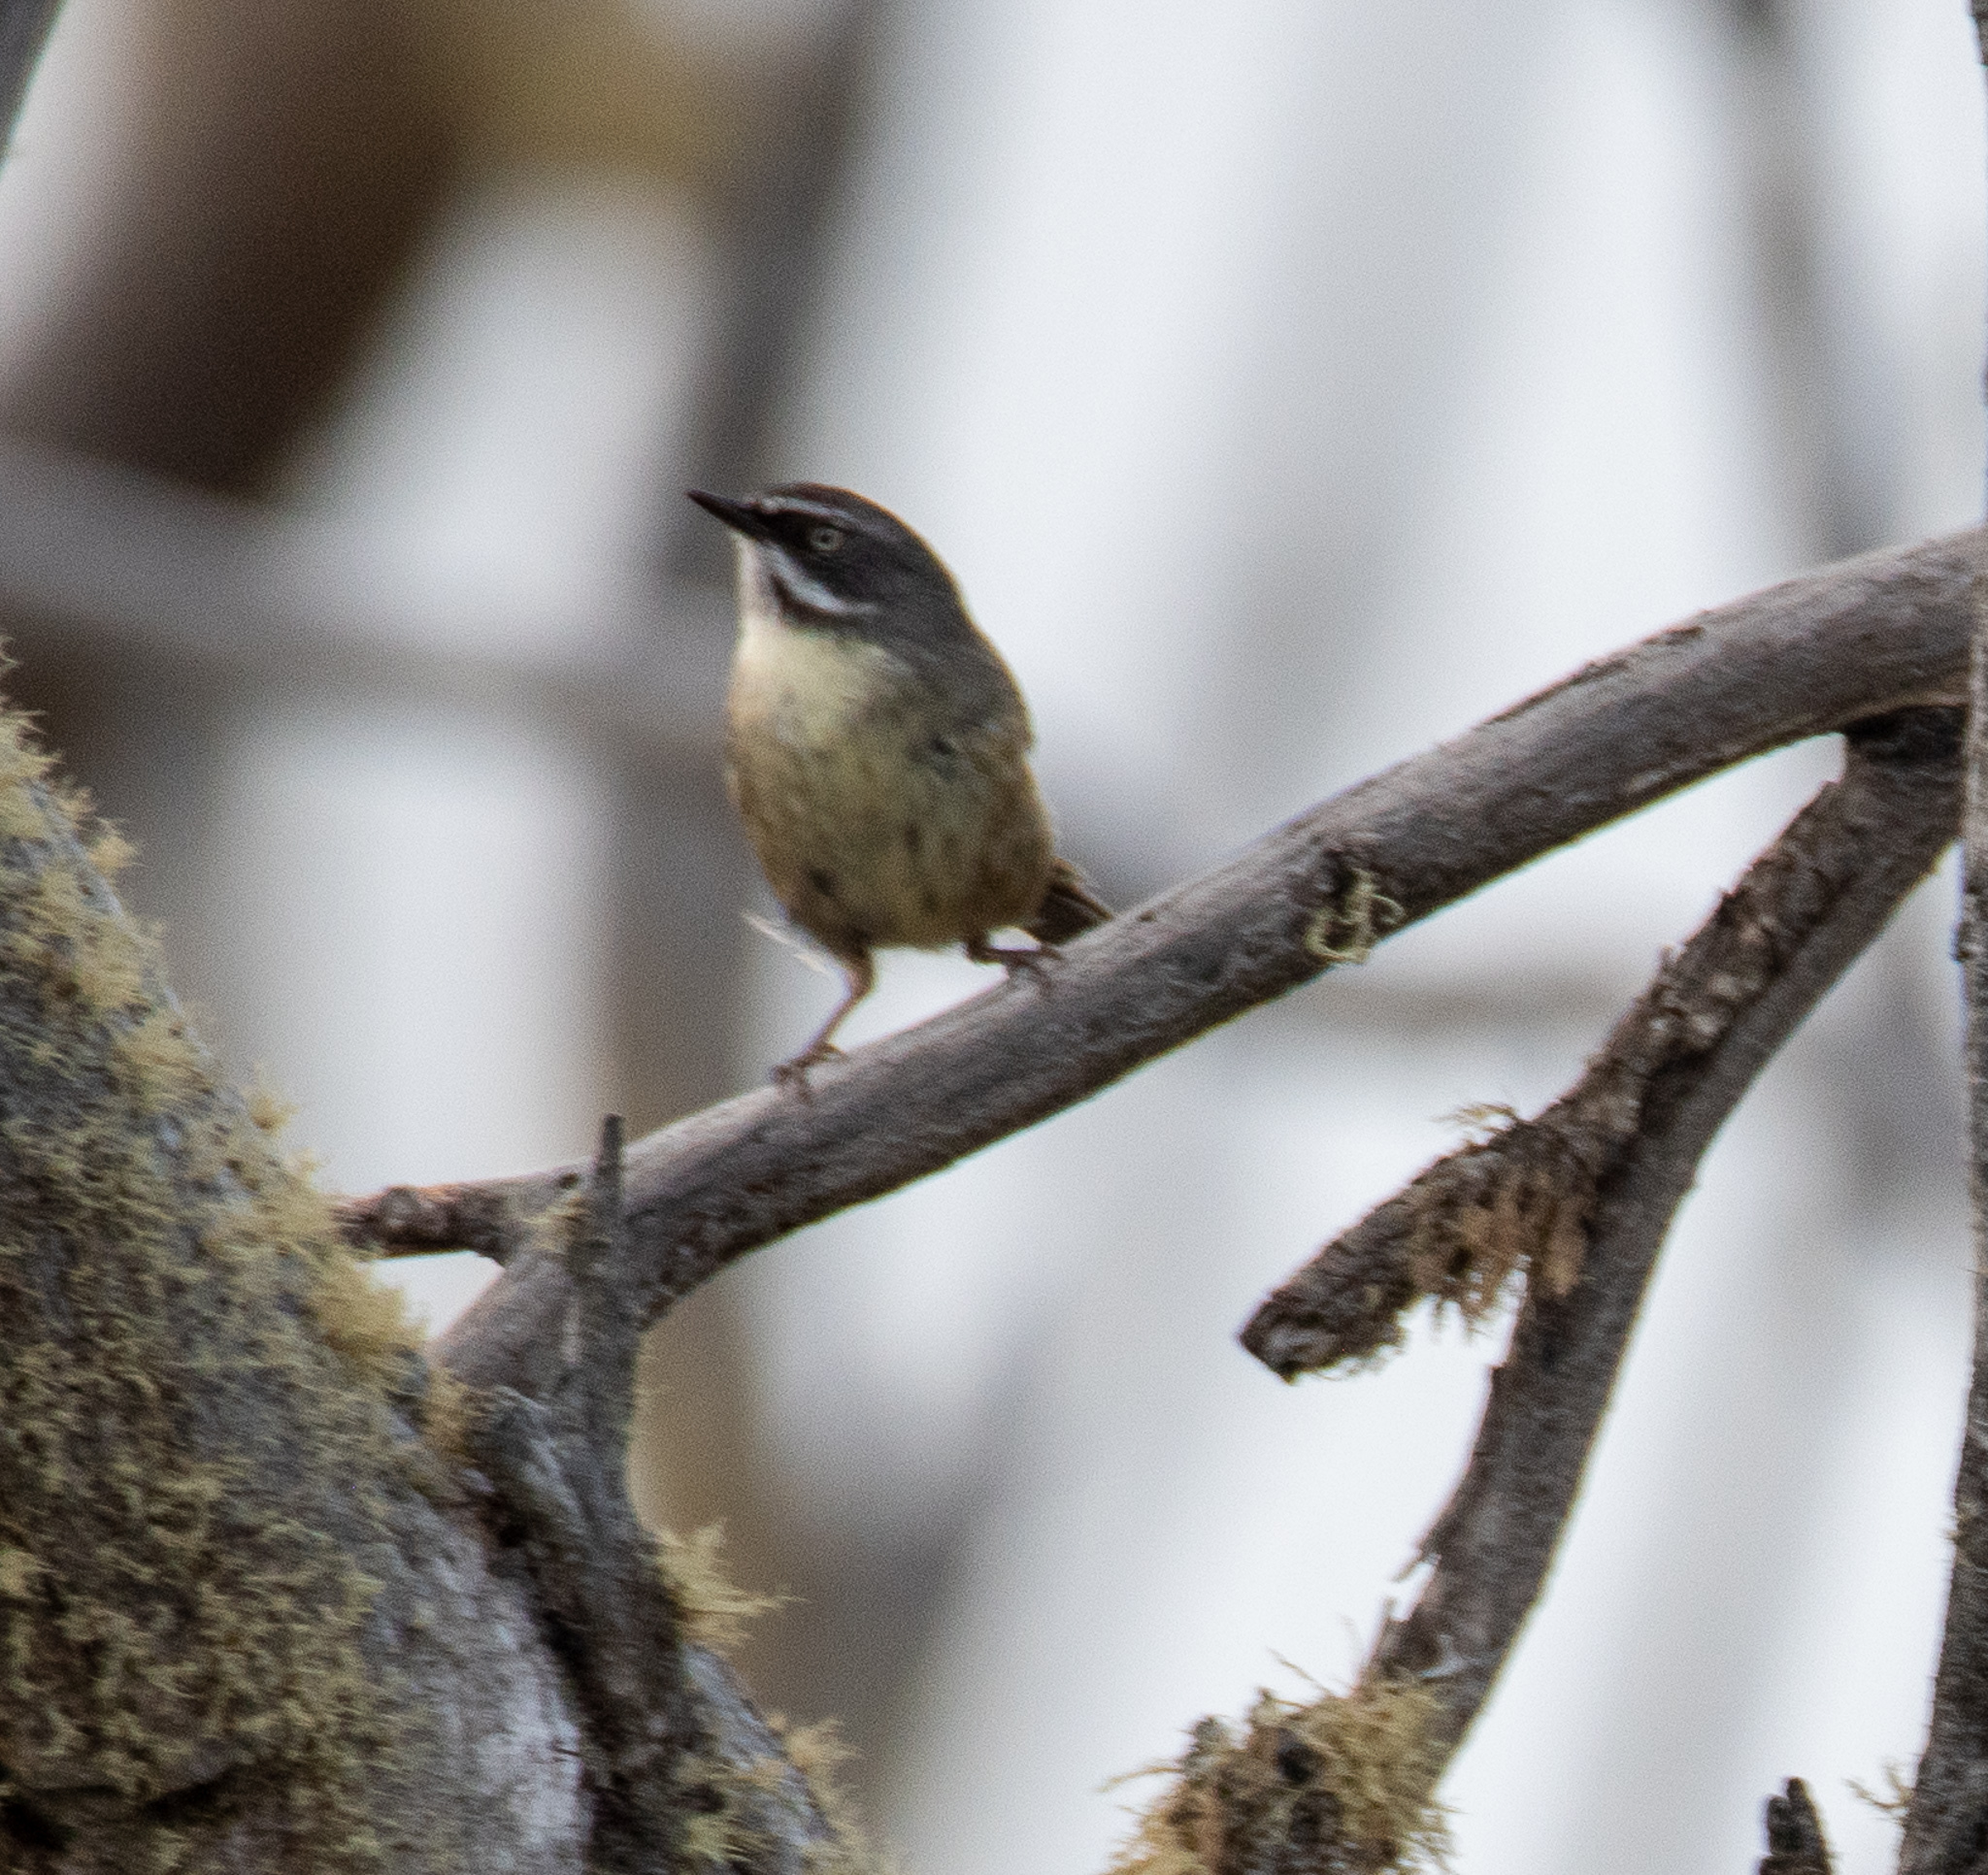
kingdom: Animalia
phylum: Chordata
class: Aves
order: Passeriformes
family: Acanthizidae
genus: Sericornis
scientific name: Sericornis frontalis
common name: White-browed scrubwren
